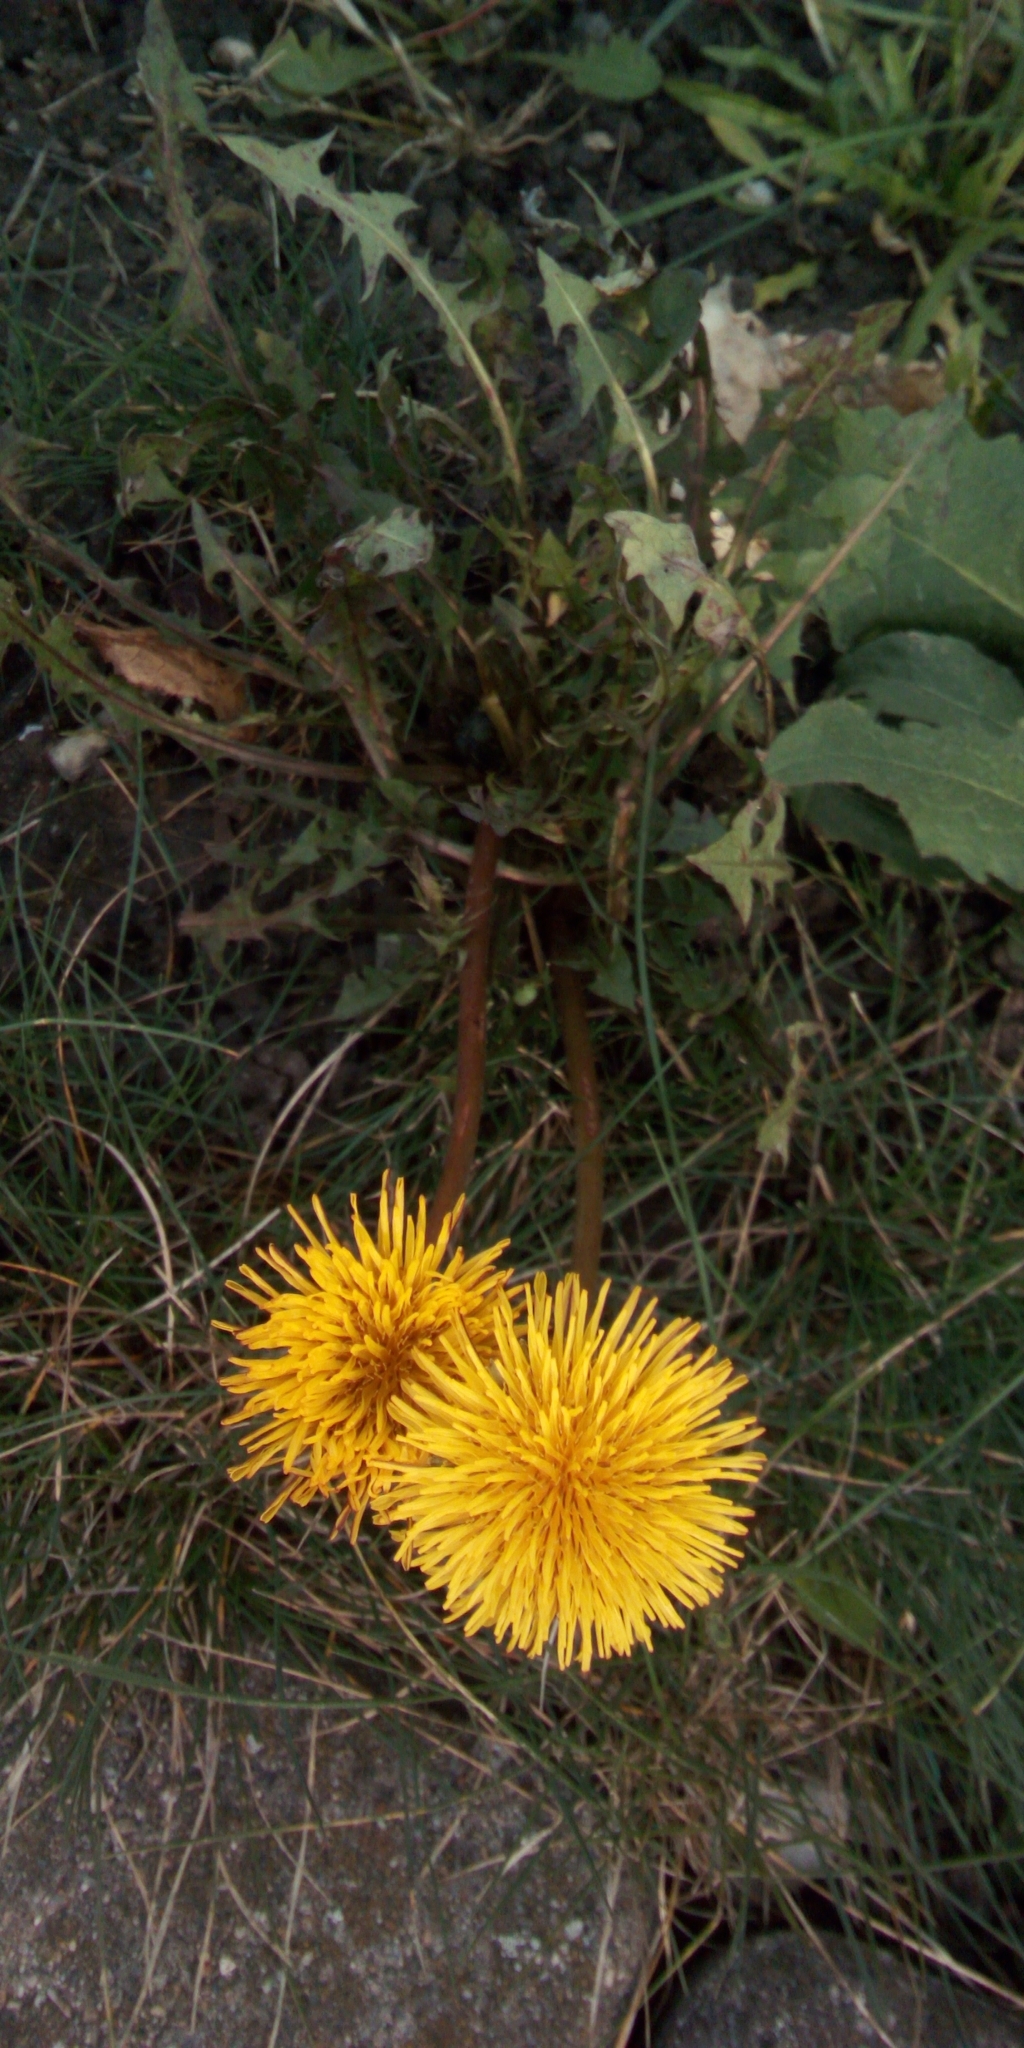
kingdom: Plantae
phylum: Tracheophyta
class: Magnoliopsida
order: Asterales
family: Asteraceae
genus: Taraxacum
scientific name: Taraxacum officinale
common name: Common dandelion
